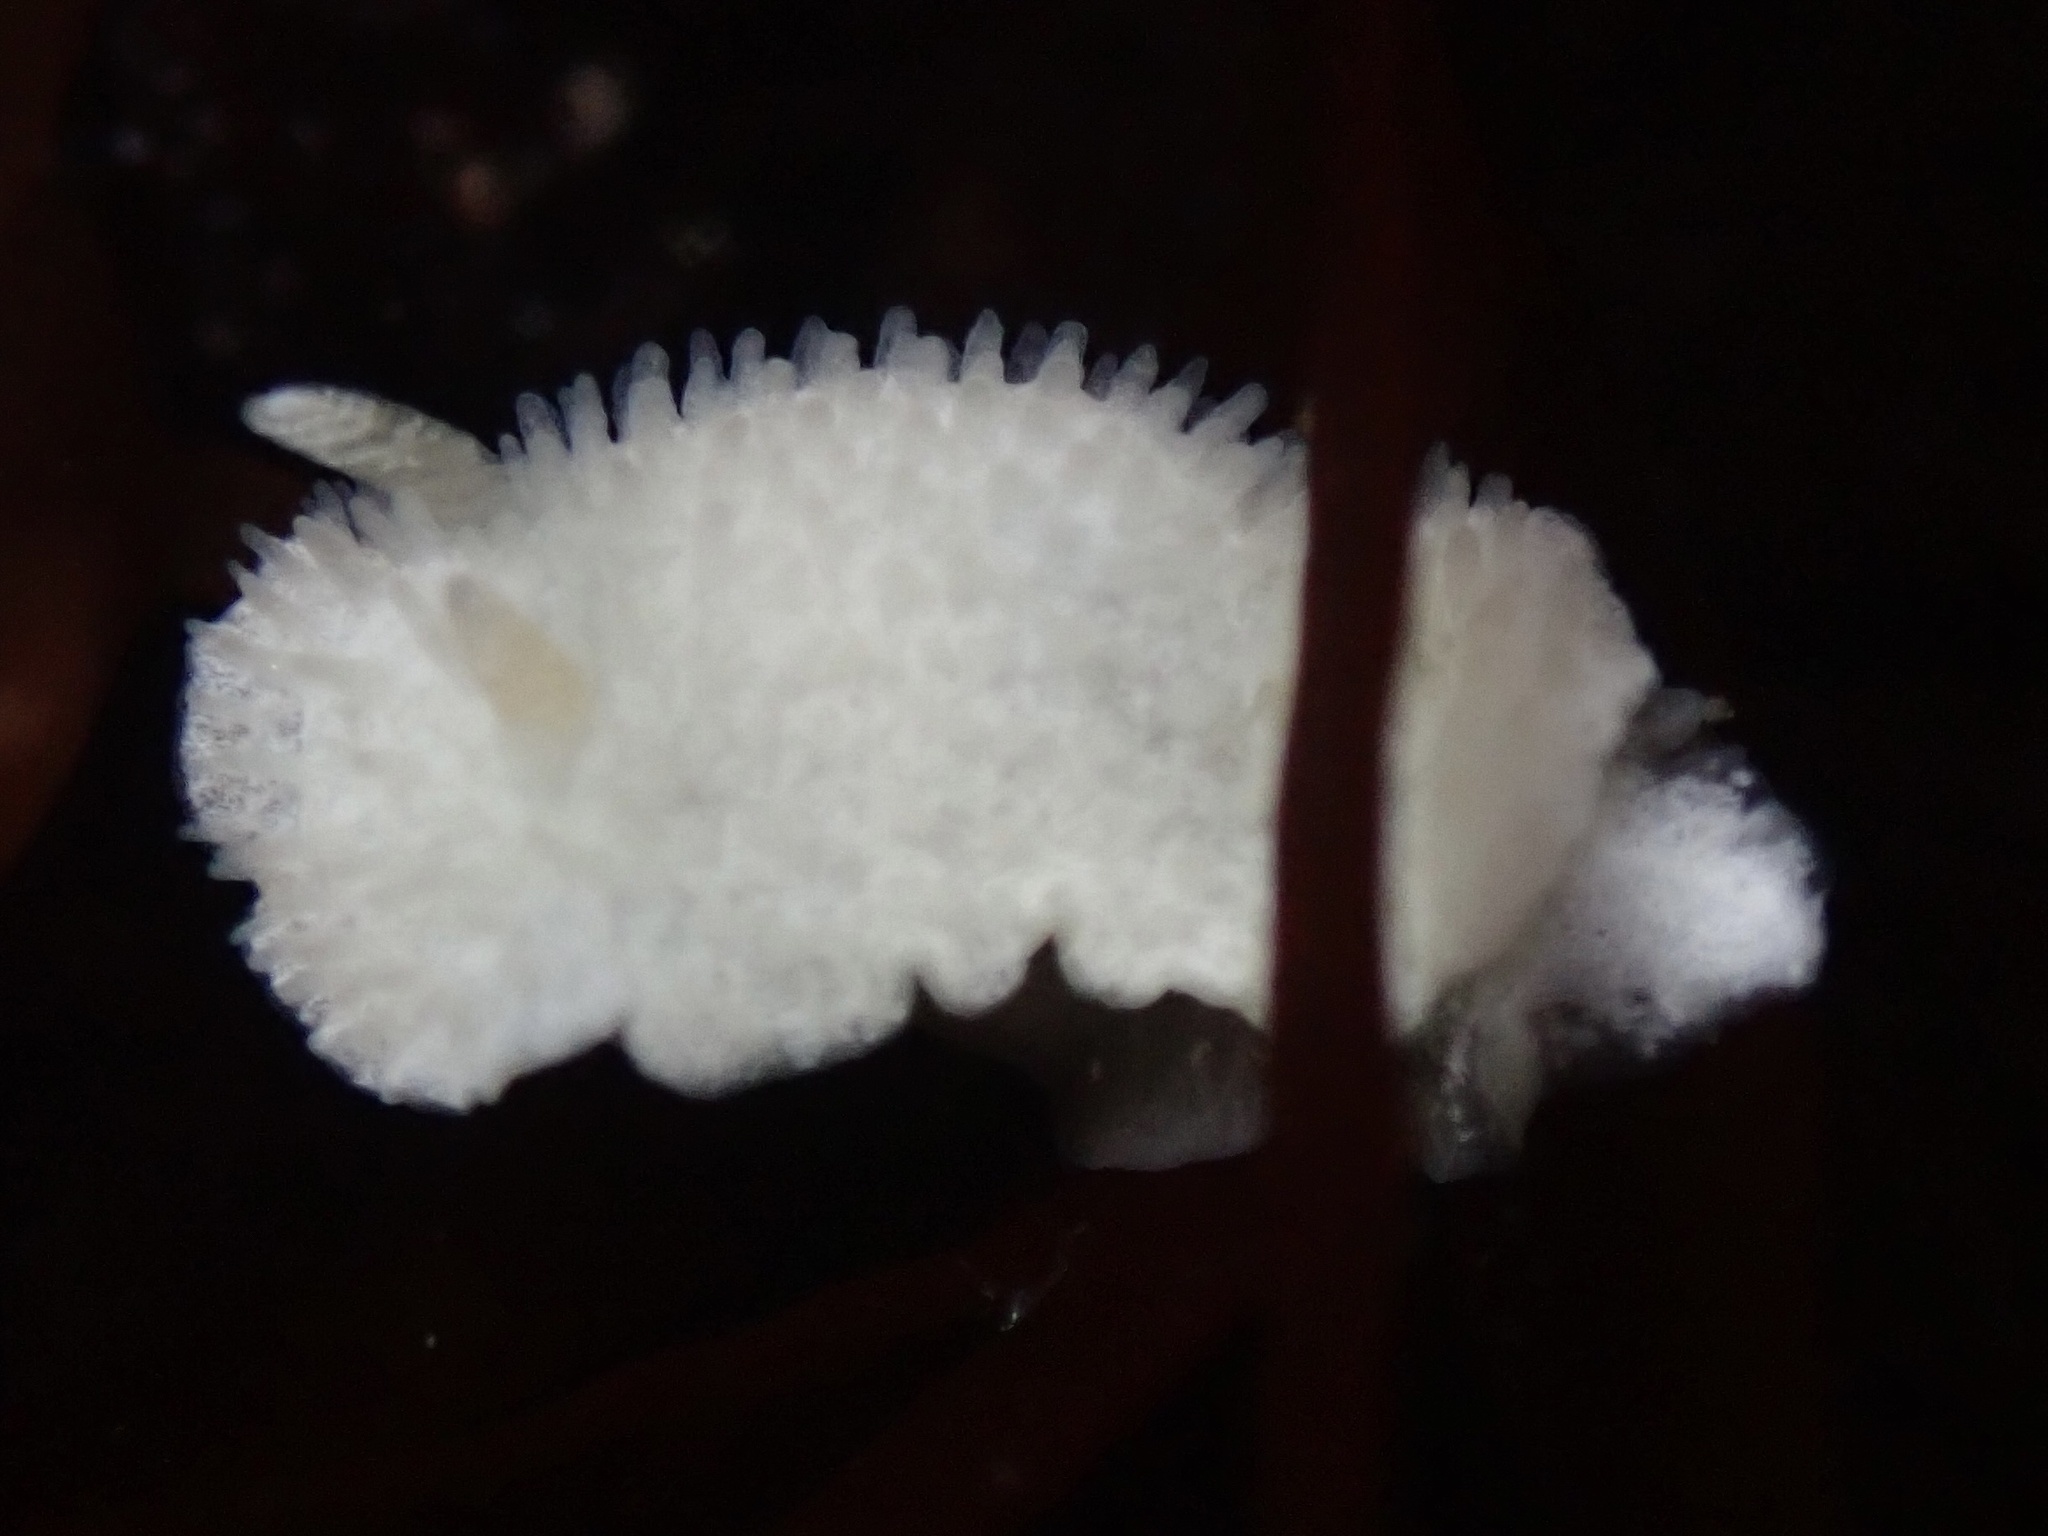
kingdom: Animalia
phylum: Mollusca
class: Gastropoda
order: Nudibranchia
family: Calycidorididae
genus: Diaphorodoris
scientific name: Diaphorodoris lirulatocauda
